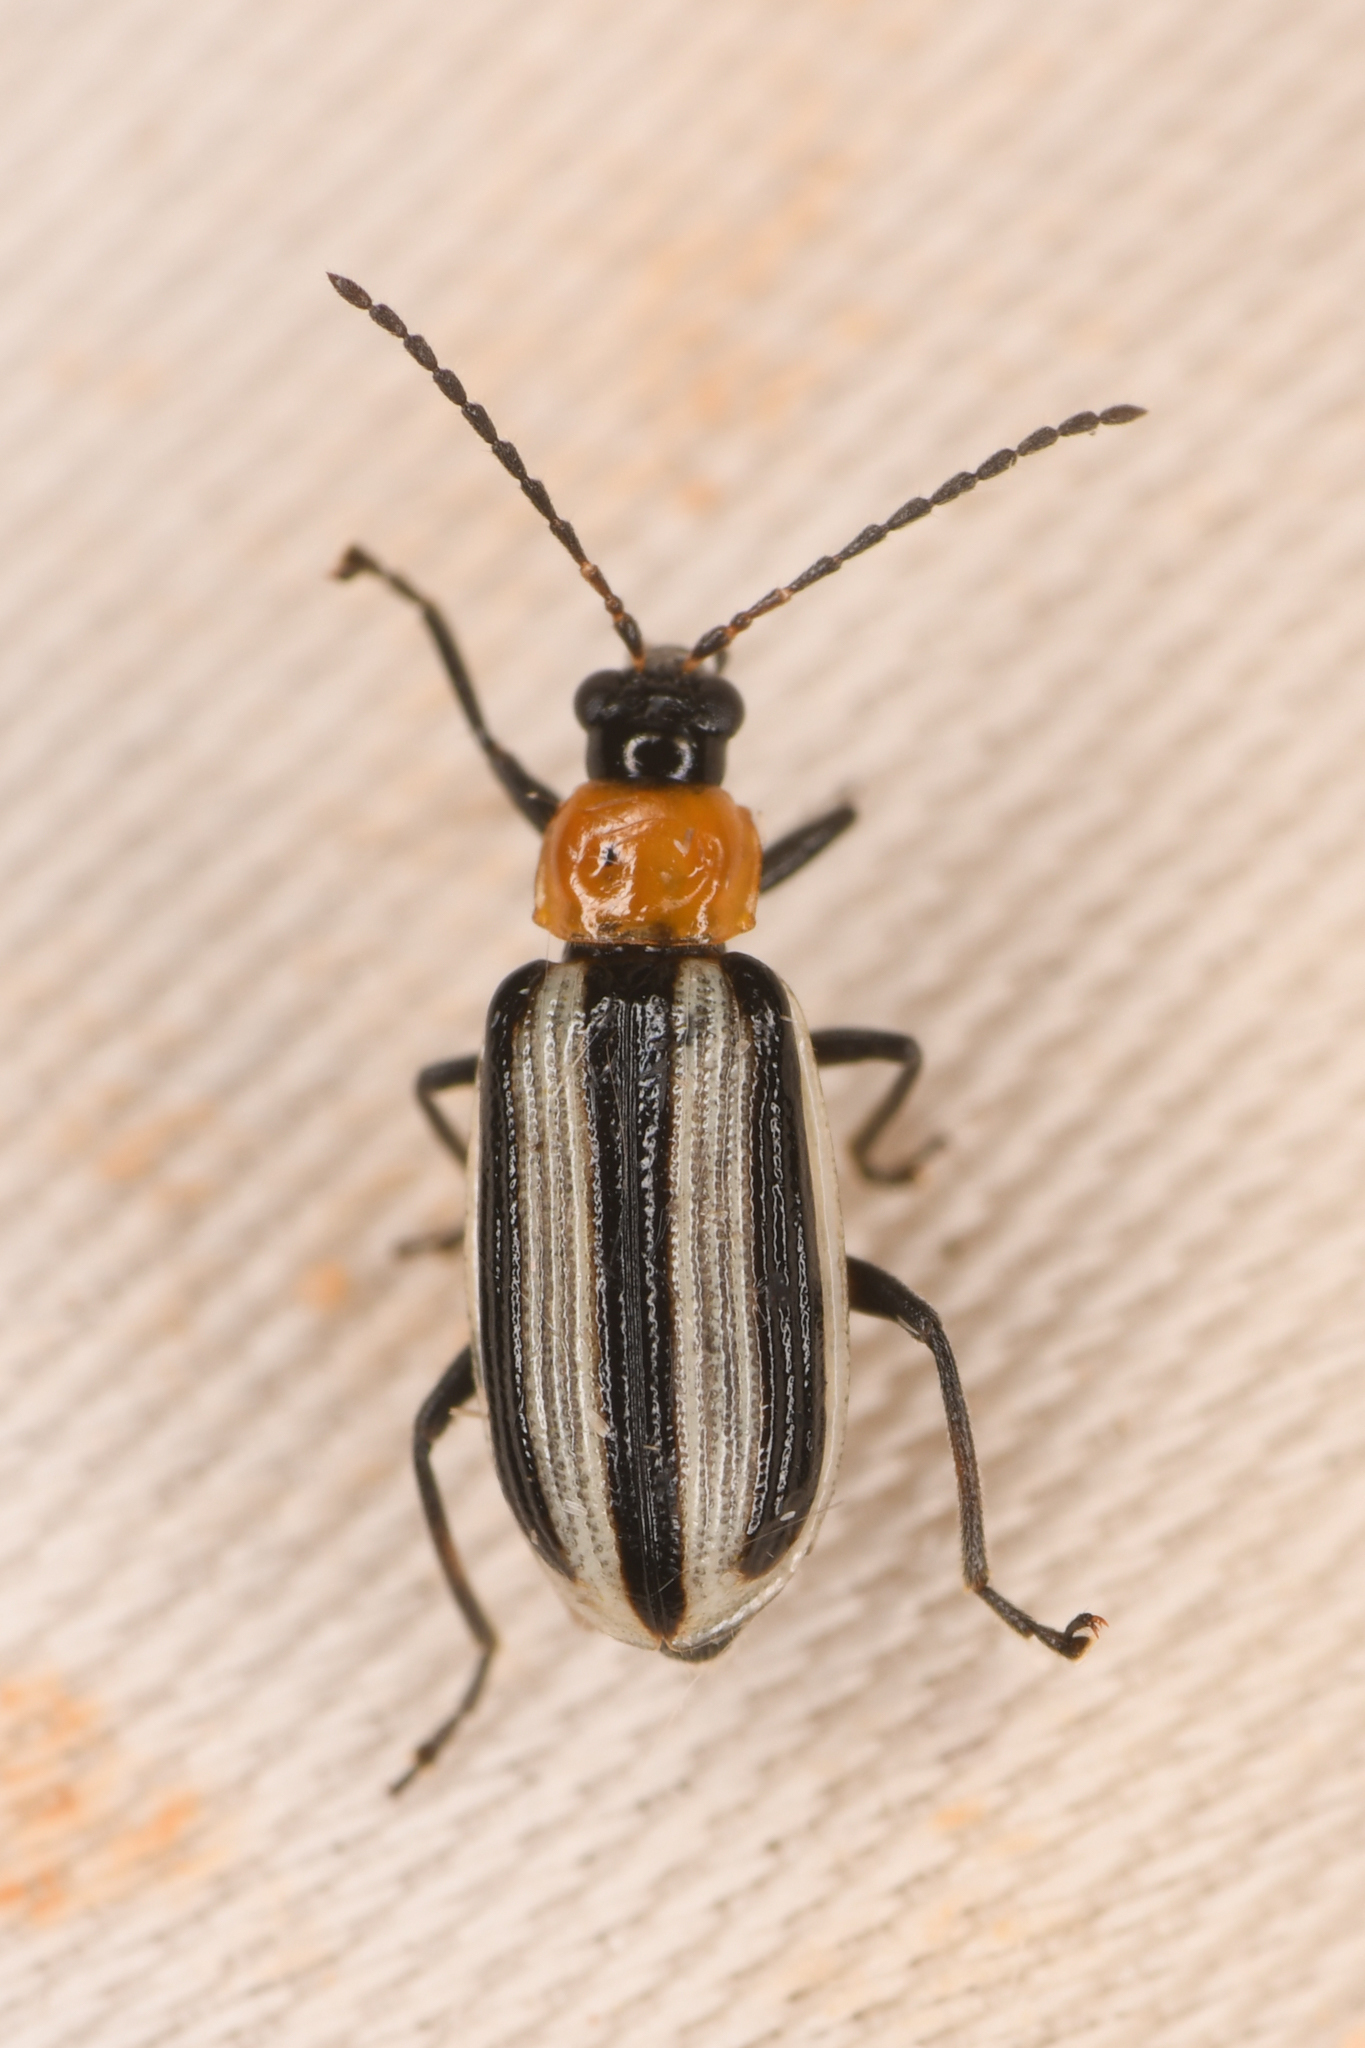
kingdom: Animalia
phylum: Arthropoda
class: Insecta
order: Coleoptera
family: Chrysomelidae
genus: Acalymma
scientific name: Acalymma trivittatum
